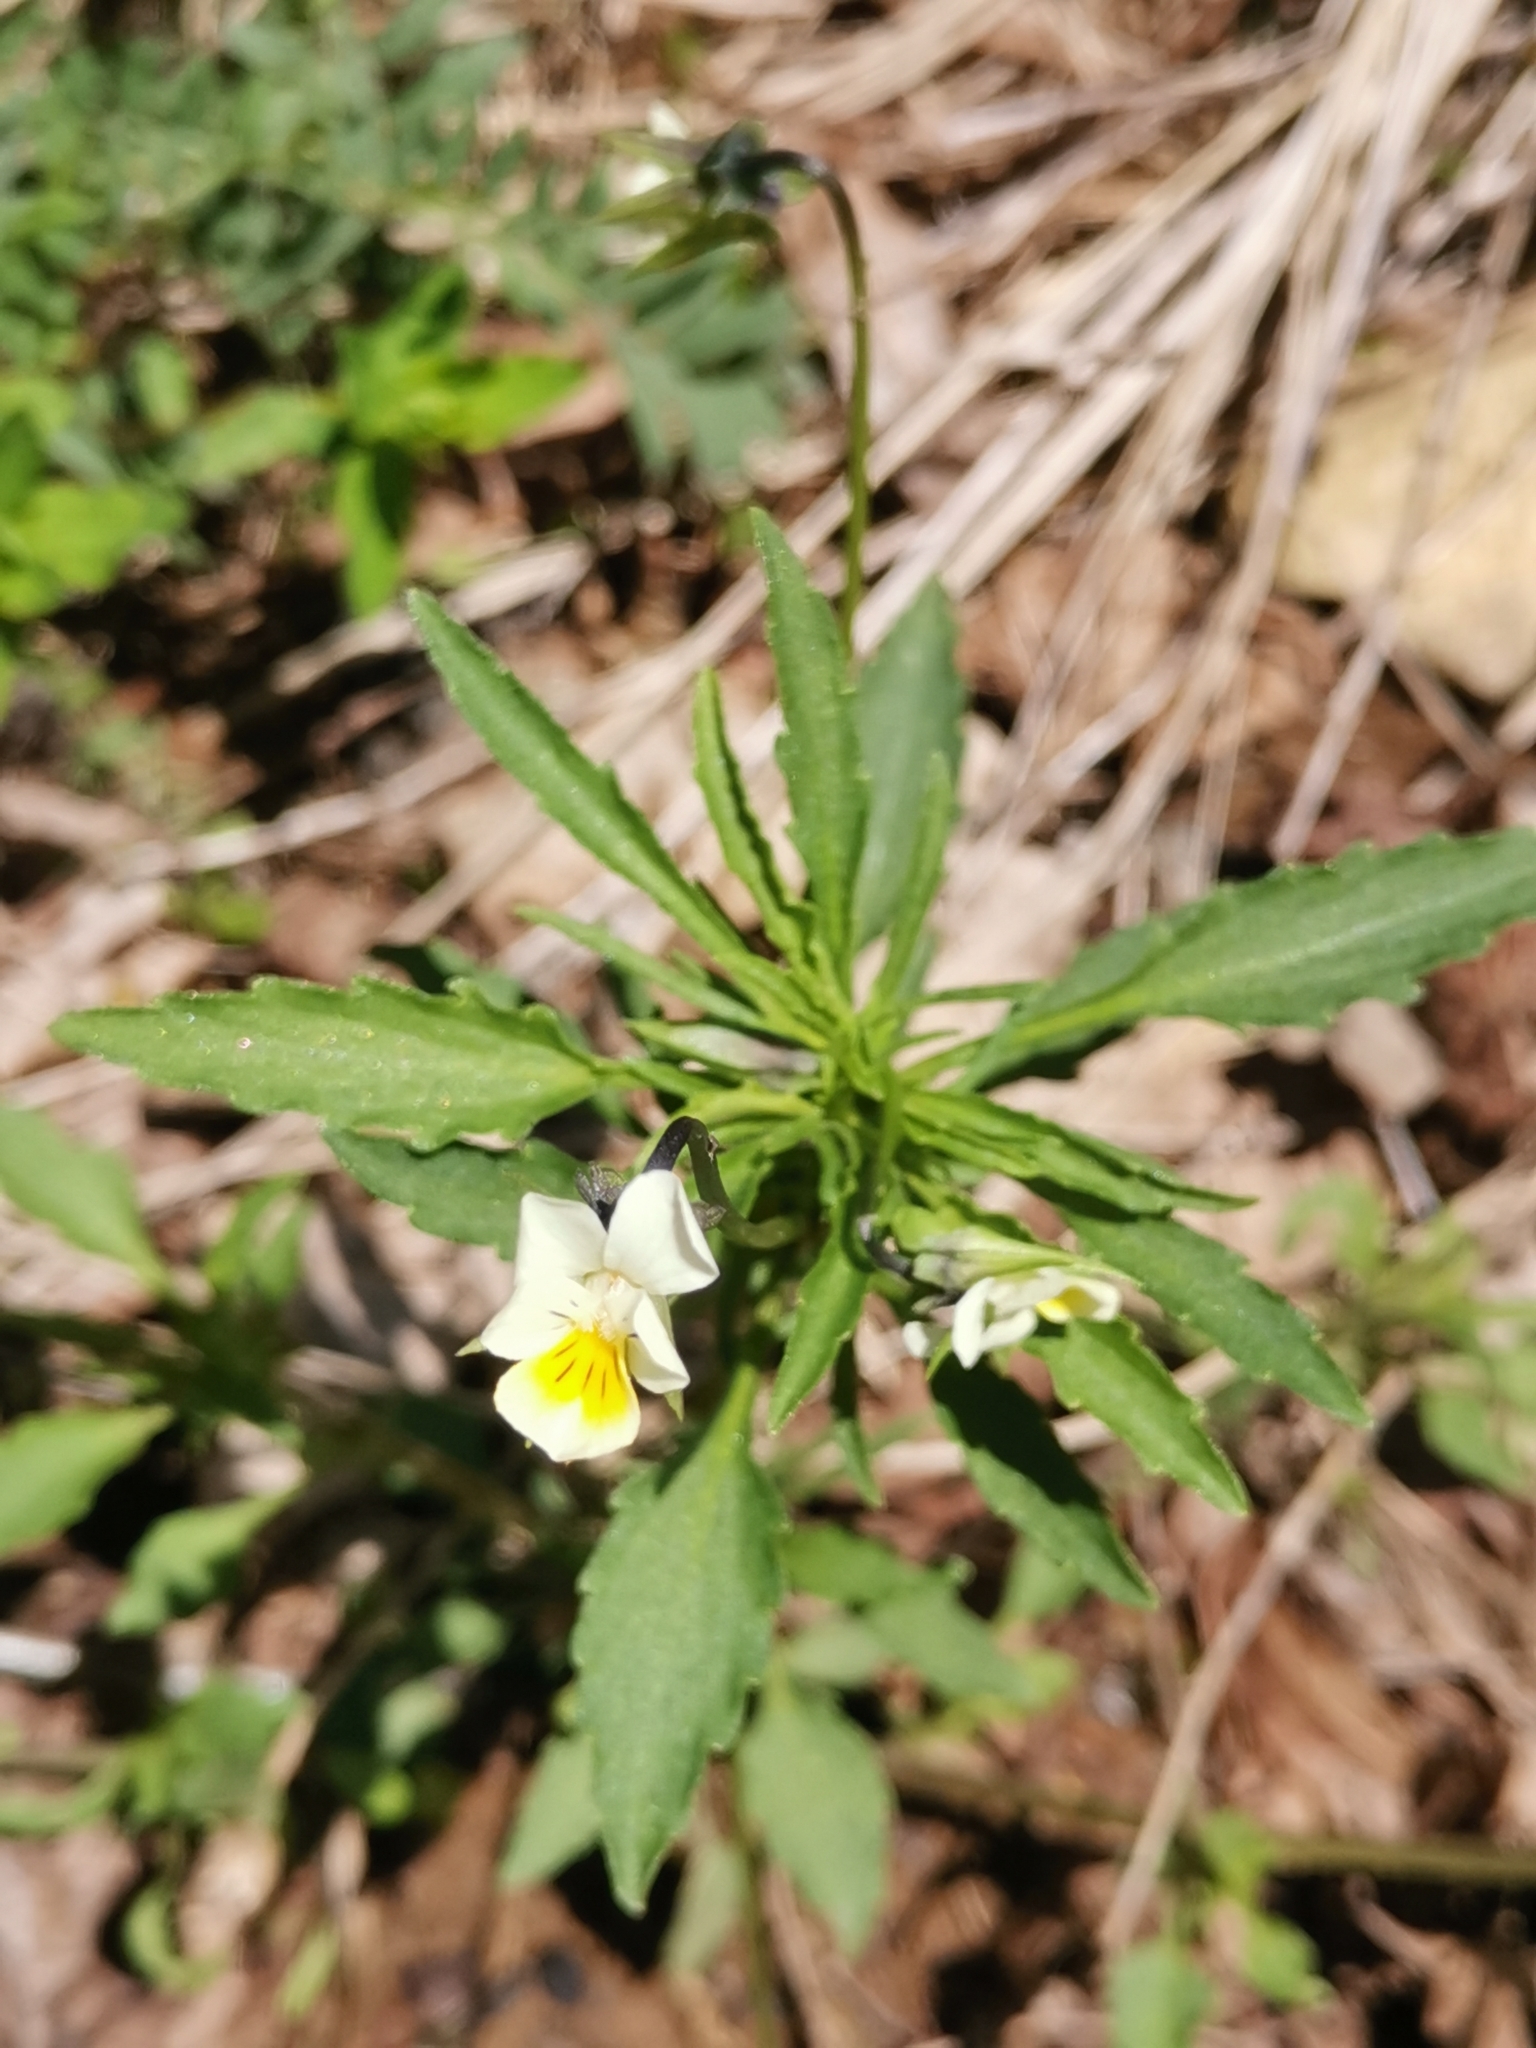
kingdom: Plantae
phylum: Tracheophyta
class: Magnoliopsida
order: Malpighiales
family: Violaceae
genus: Viola
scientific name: Viola arvensis
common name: Field pansy
